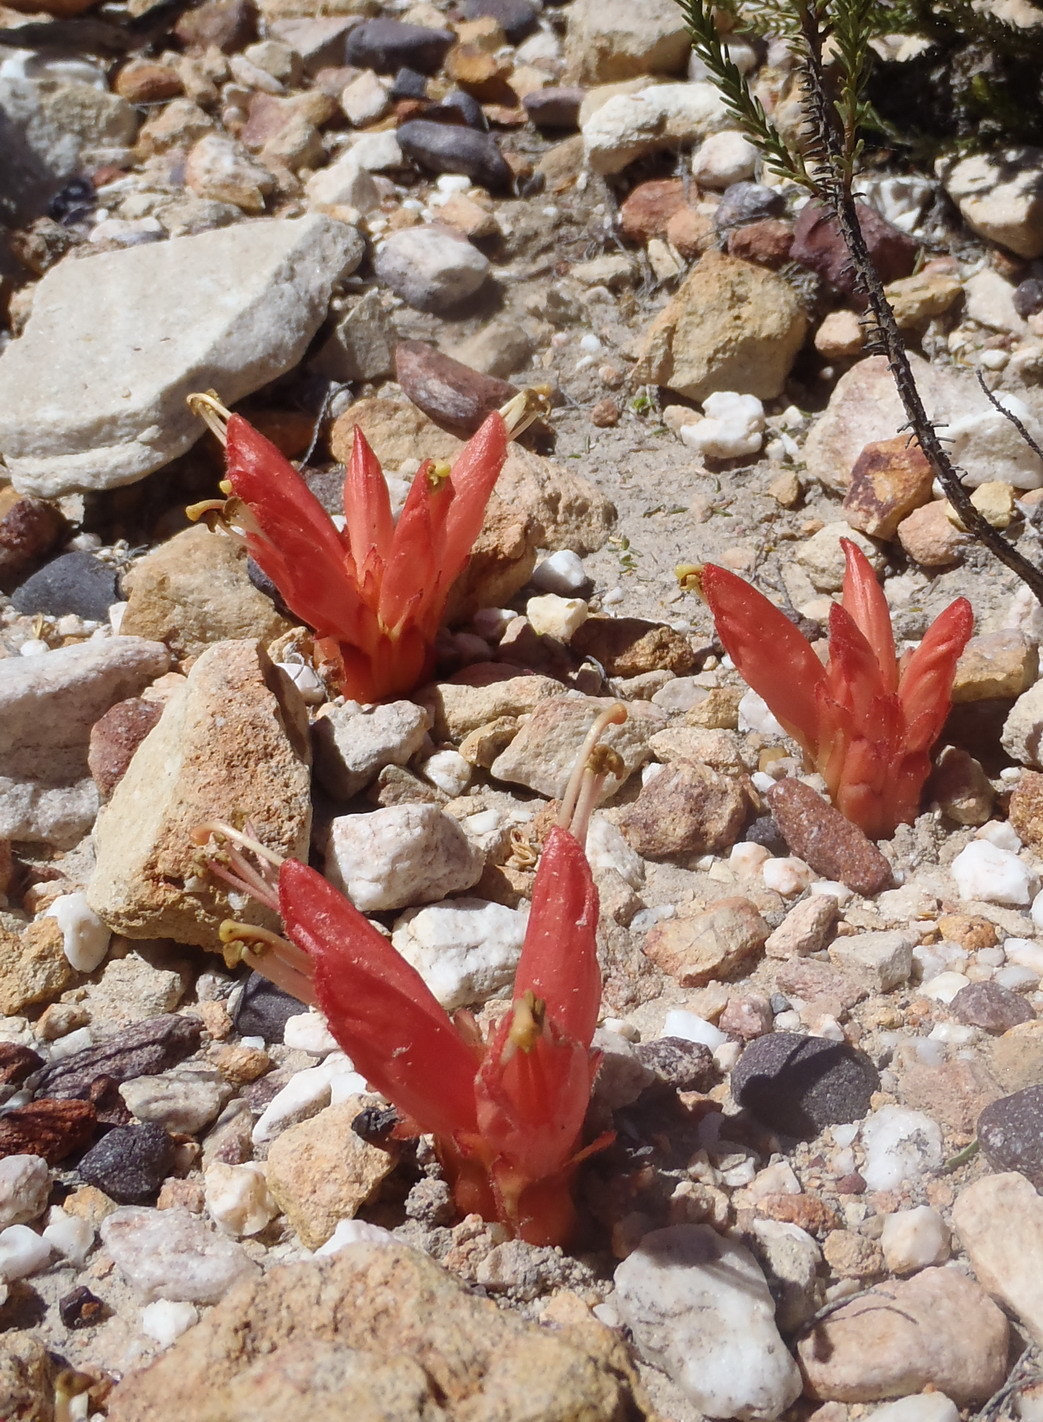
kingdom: Plantae
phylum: Tracheophyta
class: Magnoliopsida
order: Lamiales
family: Orobanchaceae
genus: Hyobanche
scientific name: Hyobanche glabrata
